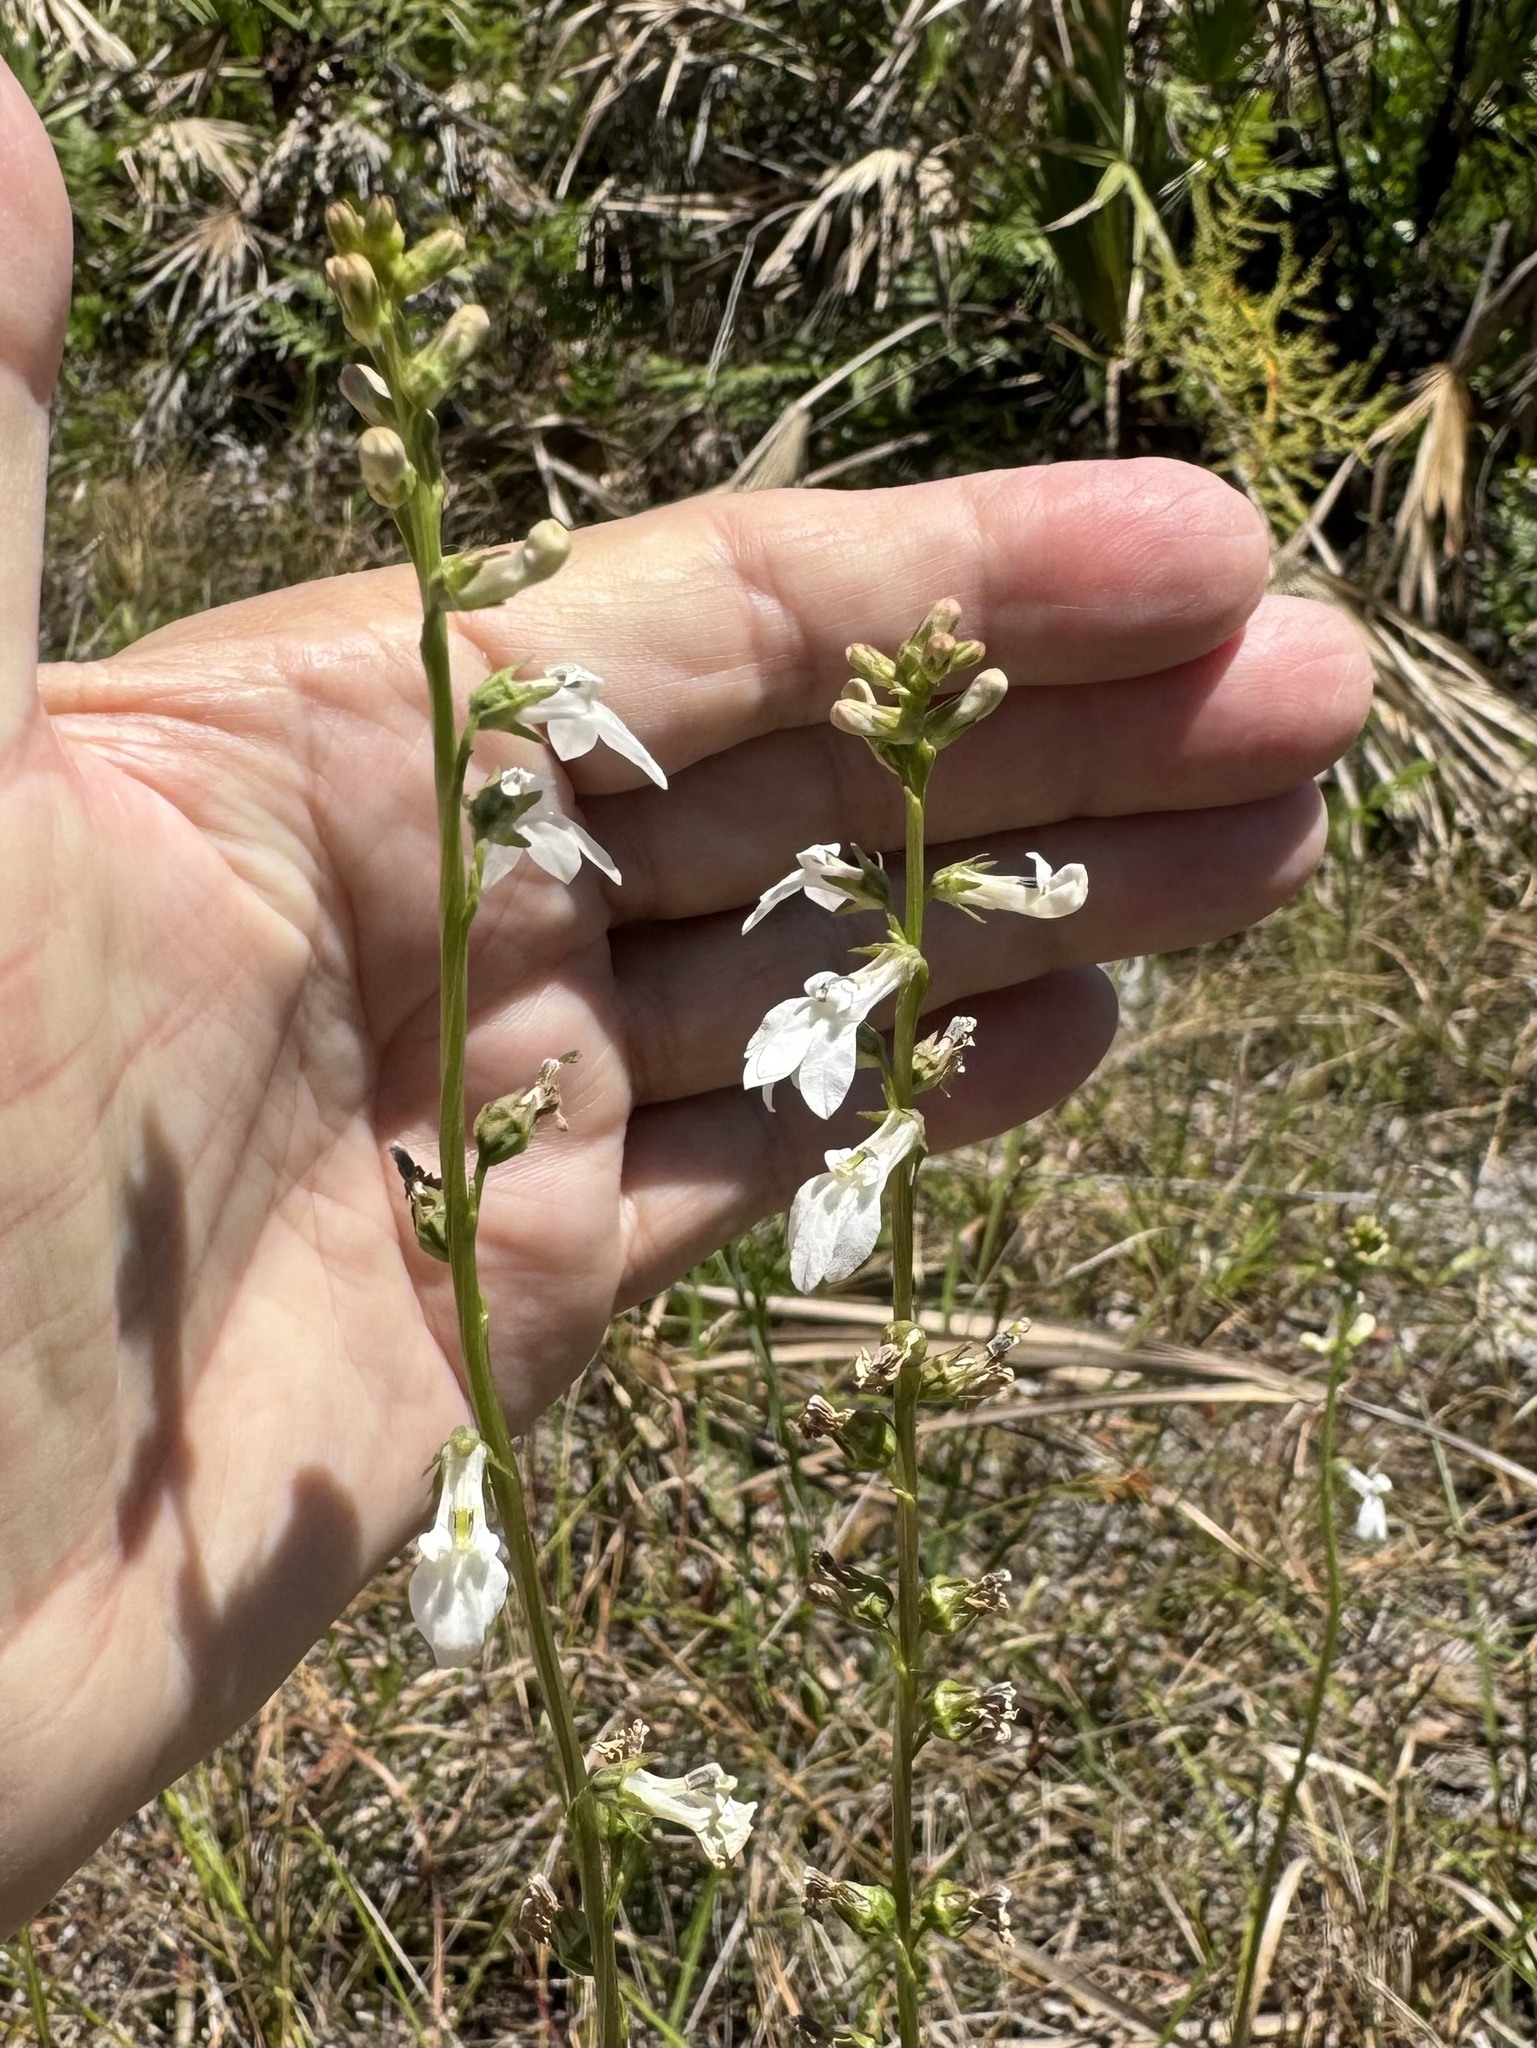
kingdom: Plantae
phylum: Tracheophyta
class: Magnoliopsida
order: Asterales
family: Campanulaceae
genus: Lobelia
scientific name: Lobelia paludosa
